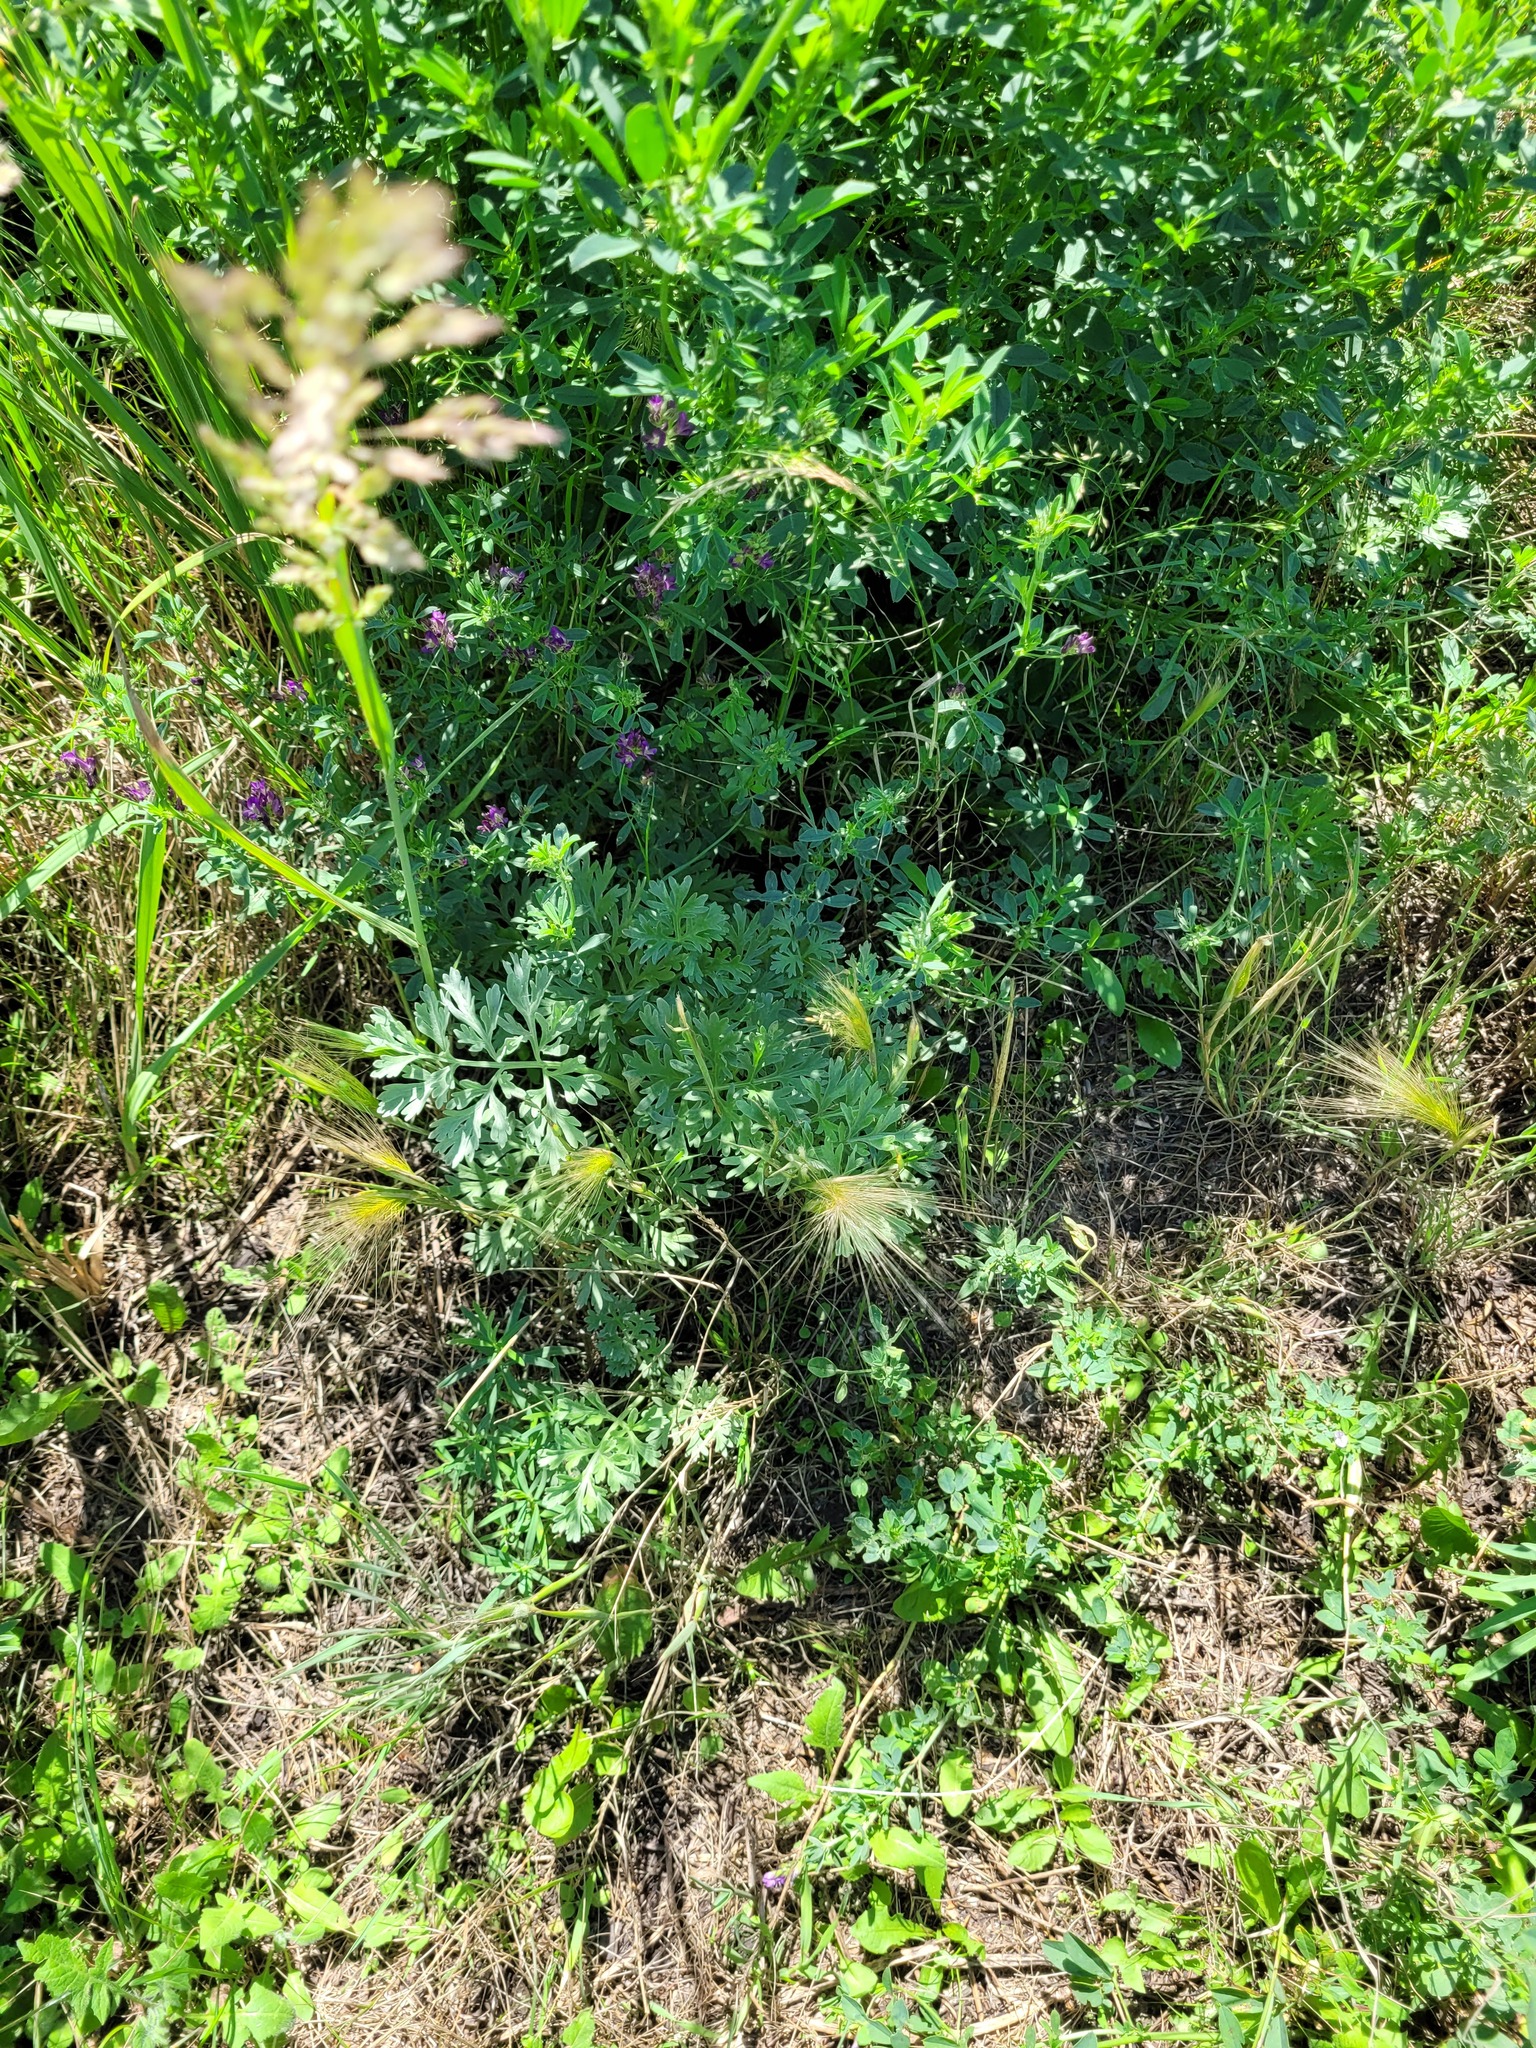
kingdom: Plantae
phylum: Tracheophyta
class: Liliopsida
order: Poales
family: Poaceae
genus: Hordeum
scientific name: Hordeum jubatum
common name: Foxtail barley
